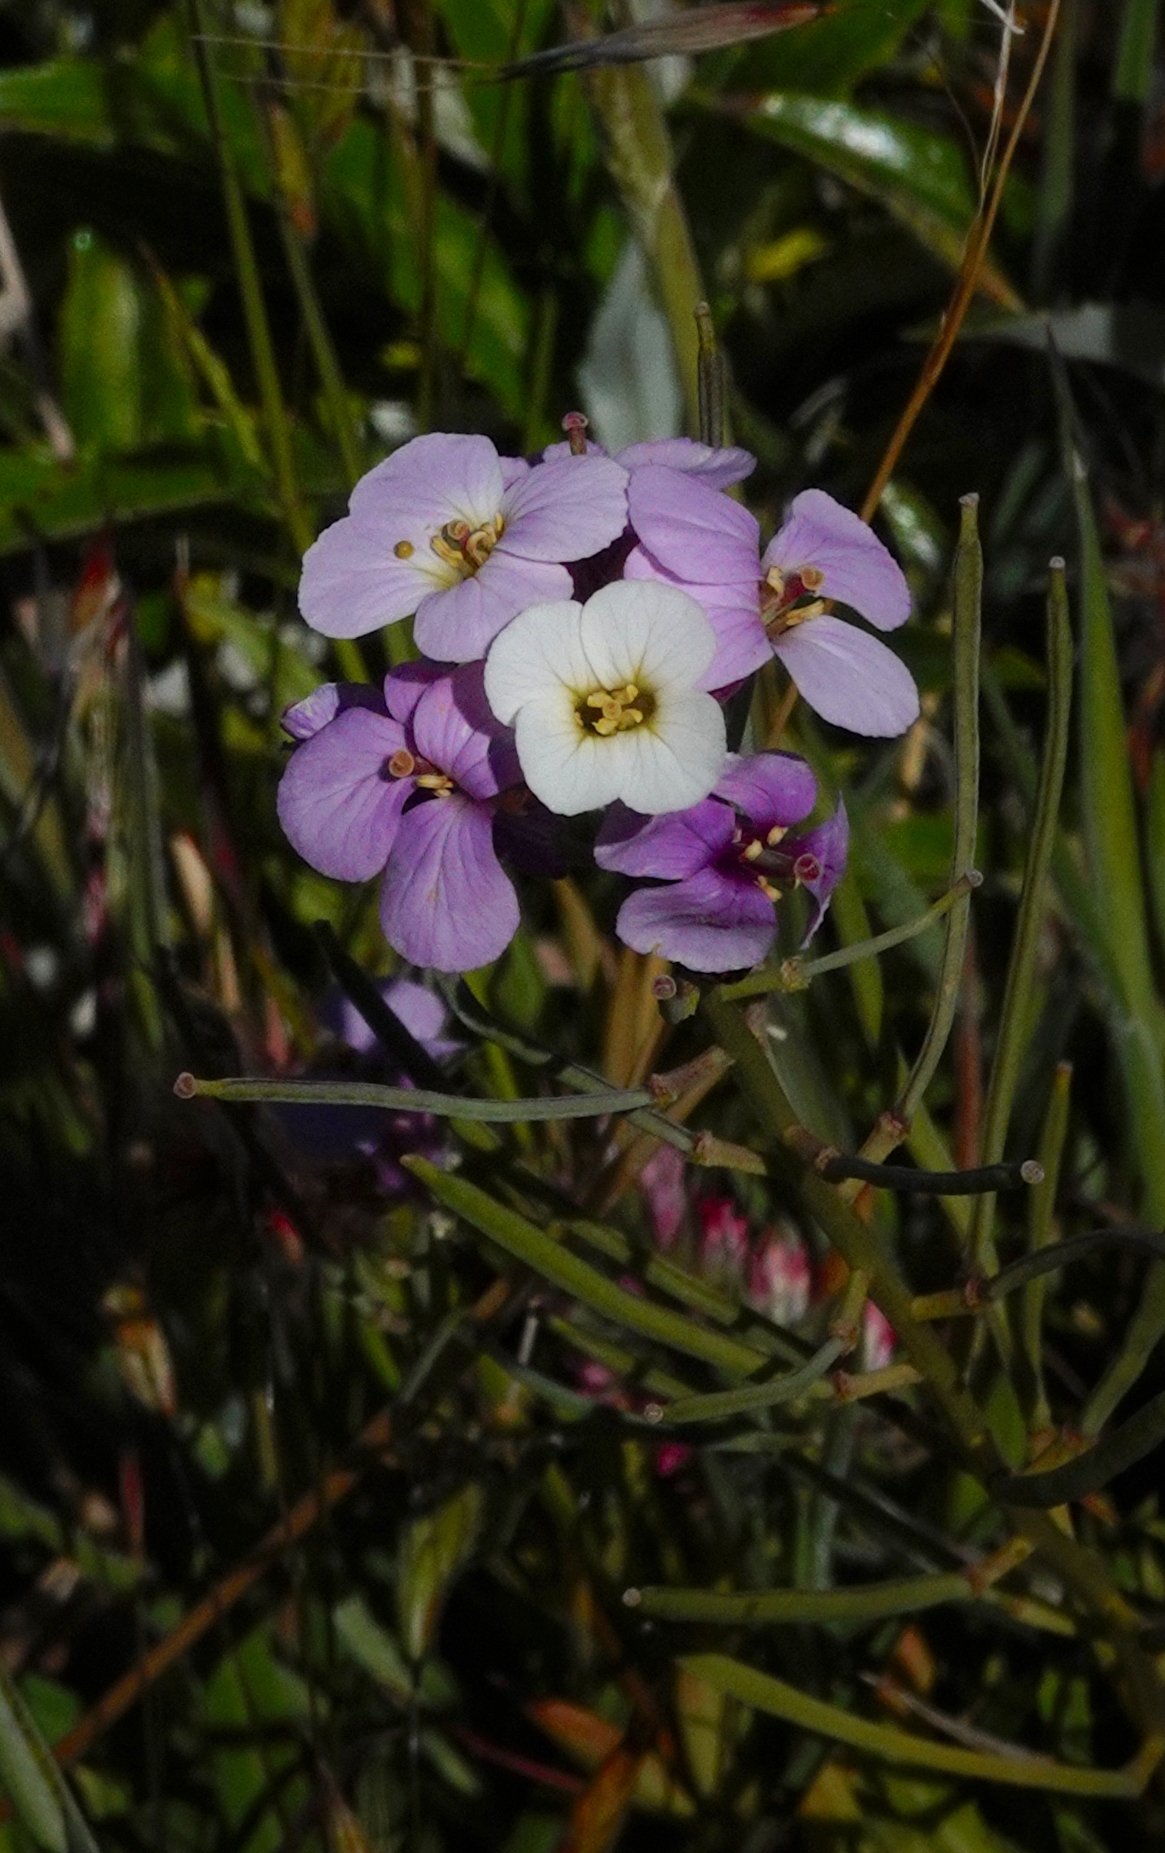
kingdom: Plantae
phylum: Tracheophyta
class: Magnoliopsida
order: Brassicales
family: Brassicaceae
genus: Erysimum
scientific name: Erysimum bicolor
